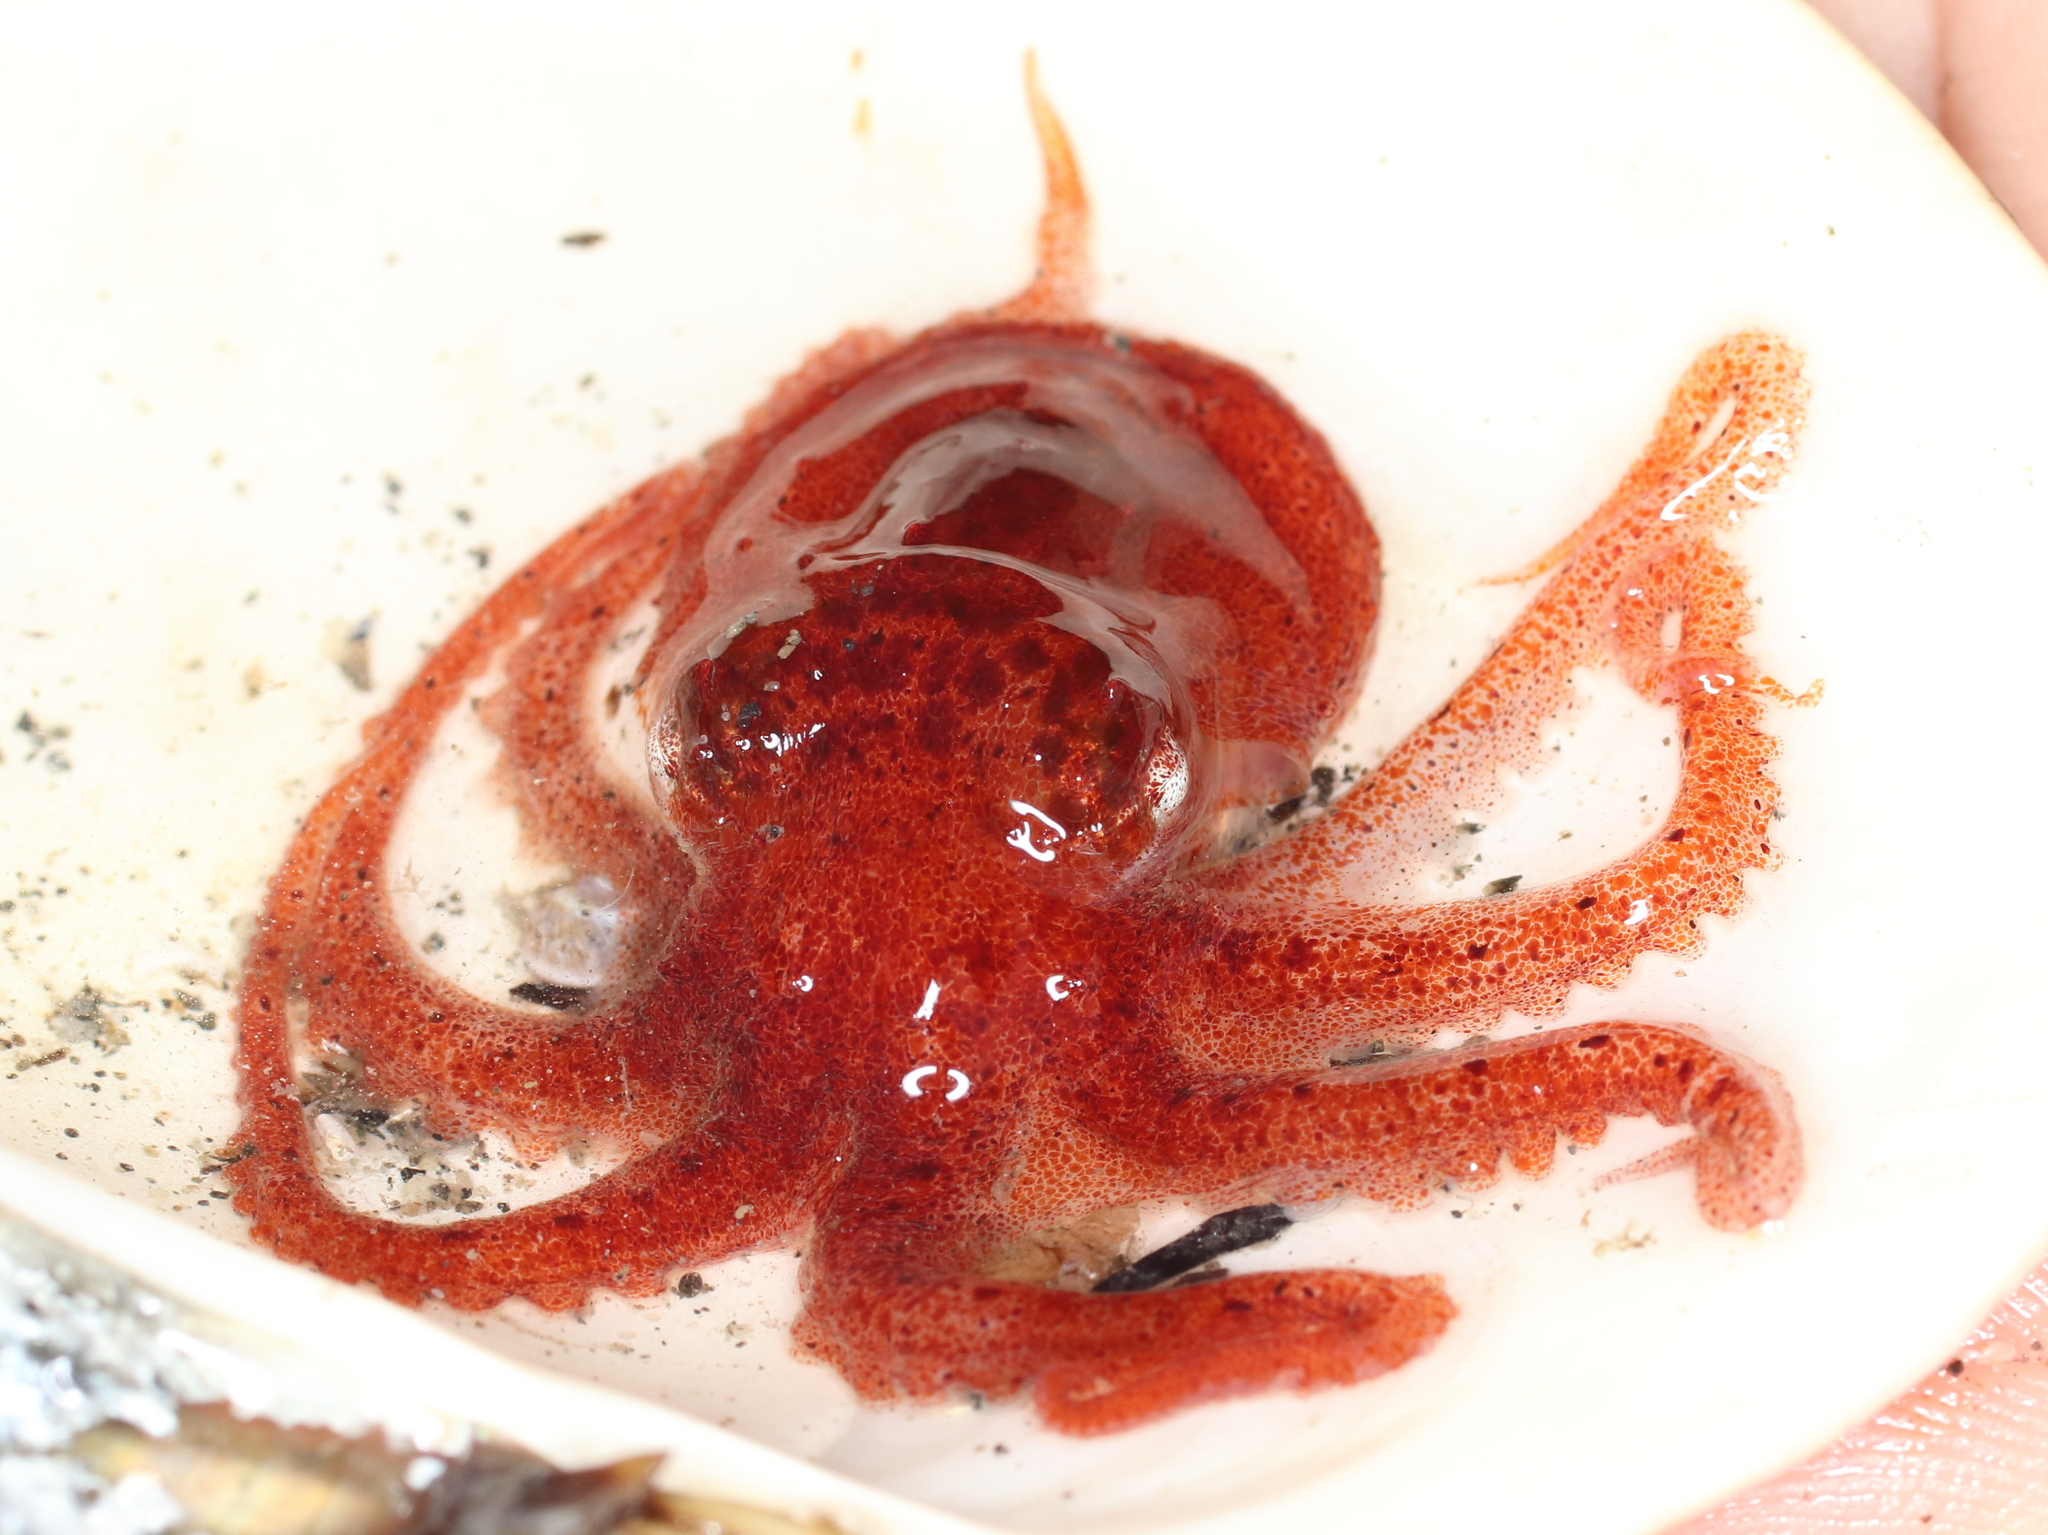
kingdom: Animalia
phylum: Mollusca
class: Cephalopoda
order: Octopoda
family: Enteroctopodidae
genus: Enteroctopus
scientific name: Enteroctopus dofleini
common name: Giant north pacific octopus
